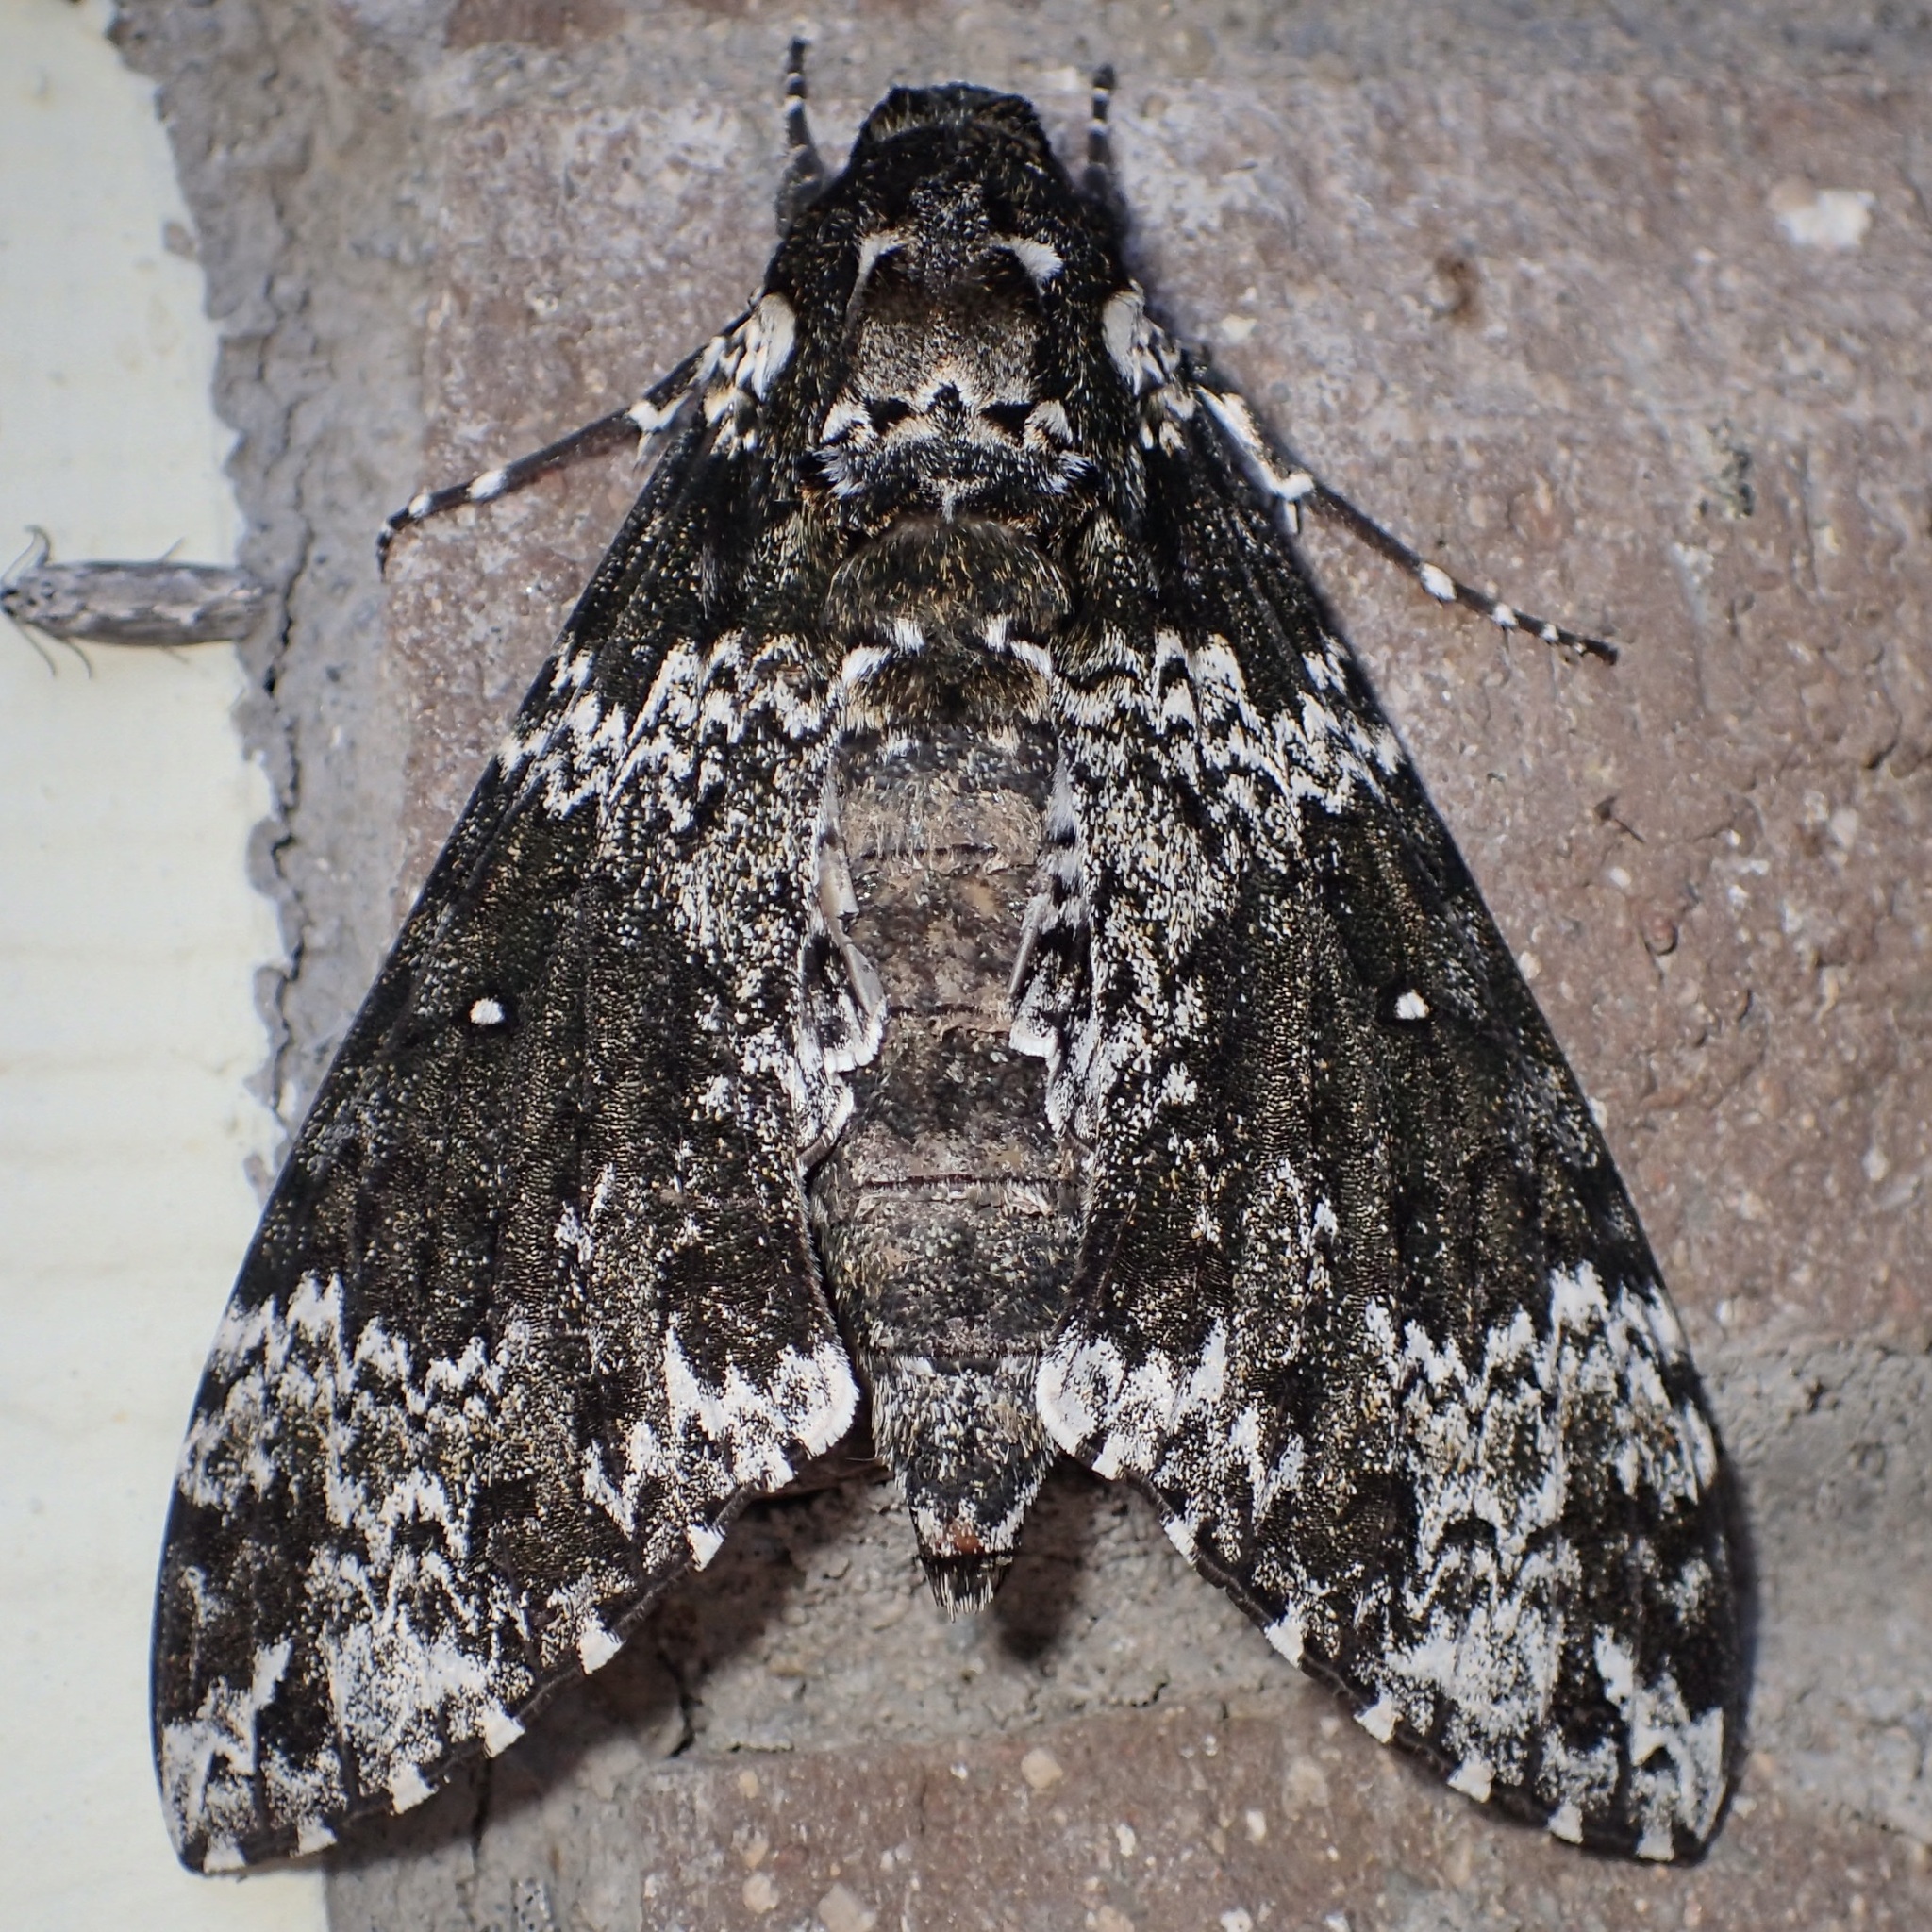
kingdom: Animalia
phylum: Arthropoda
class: Insecta
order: Lepidoptera
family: Sphingidae
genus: Manduca
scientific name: Manduca rustica
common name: Rustic sphinx
